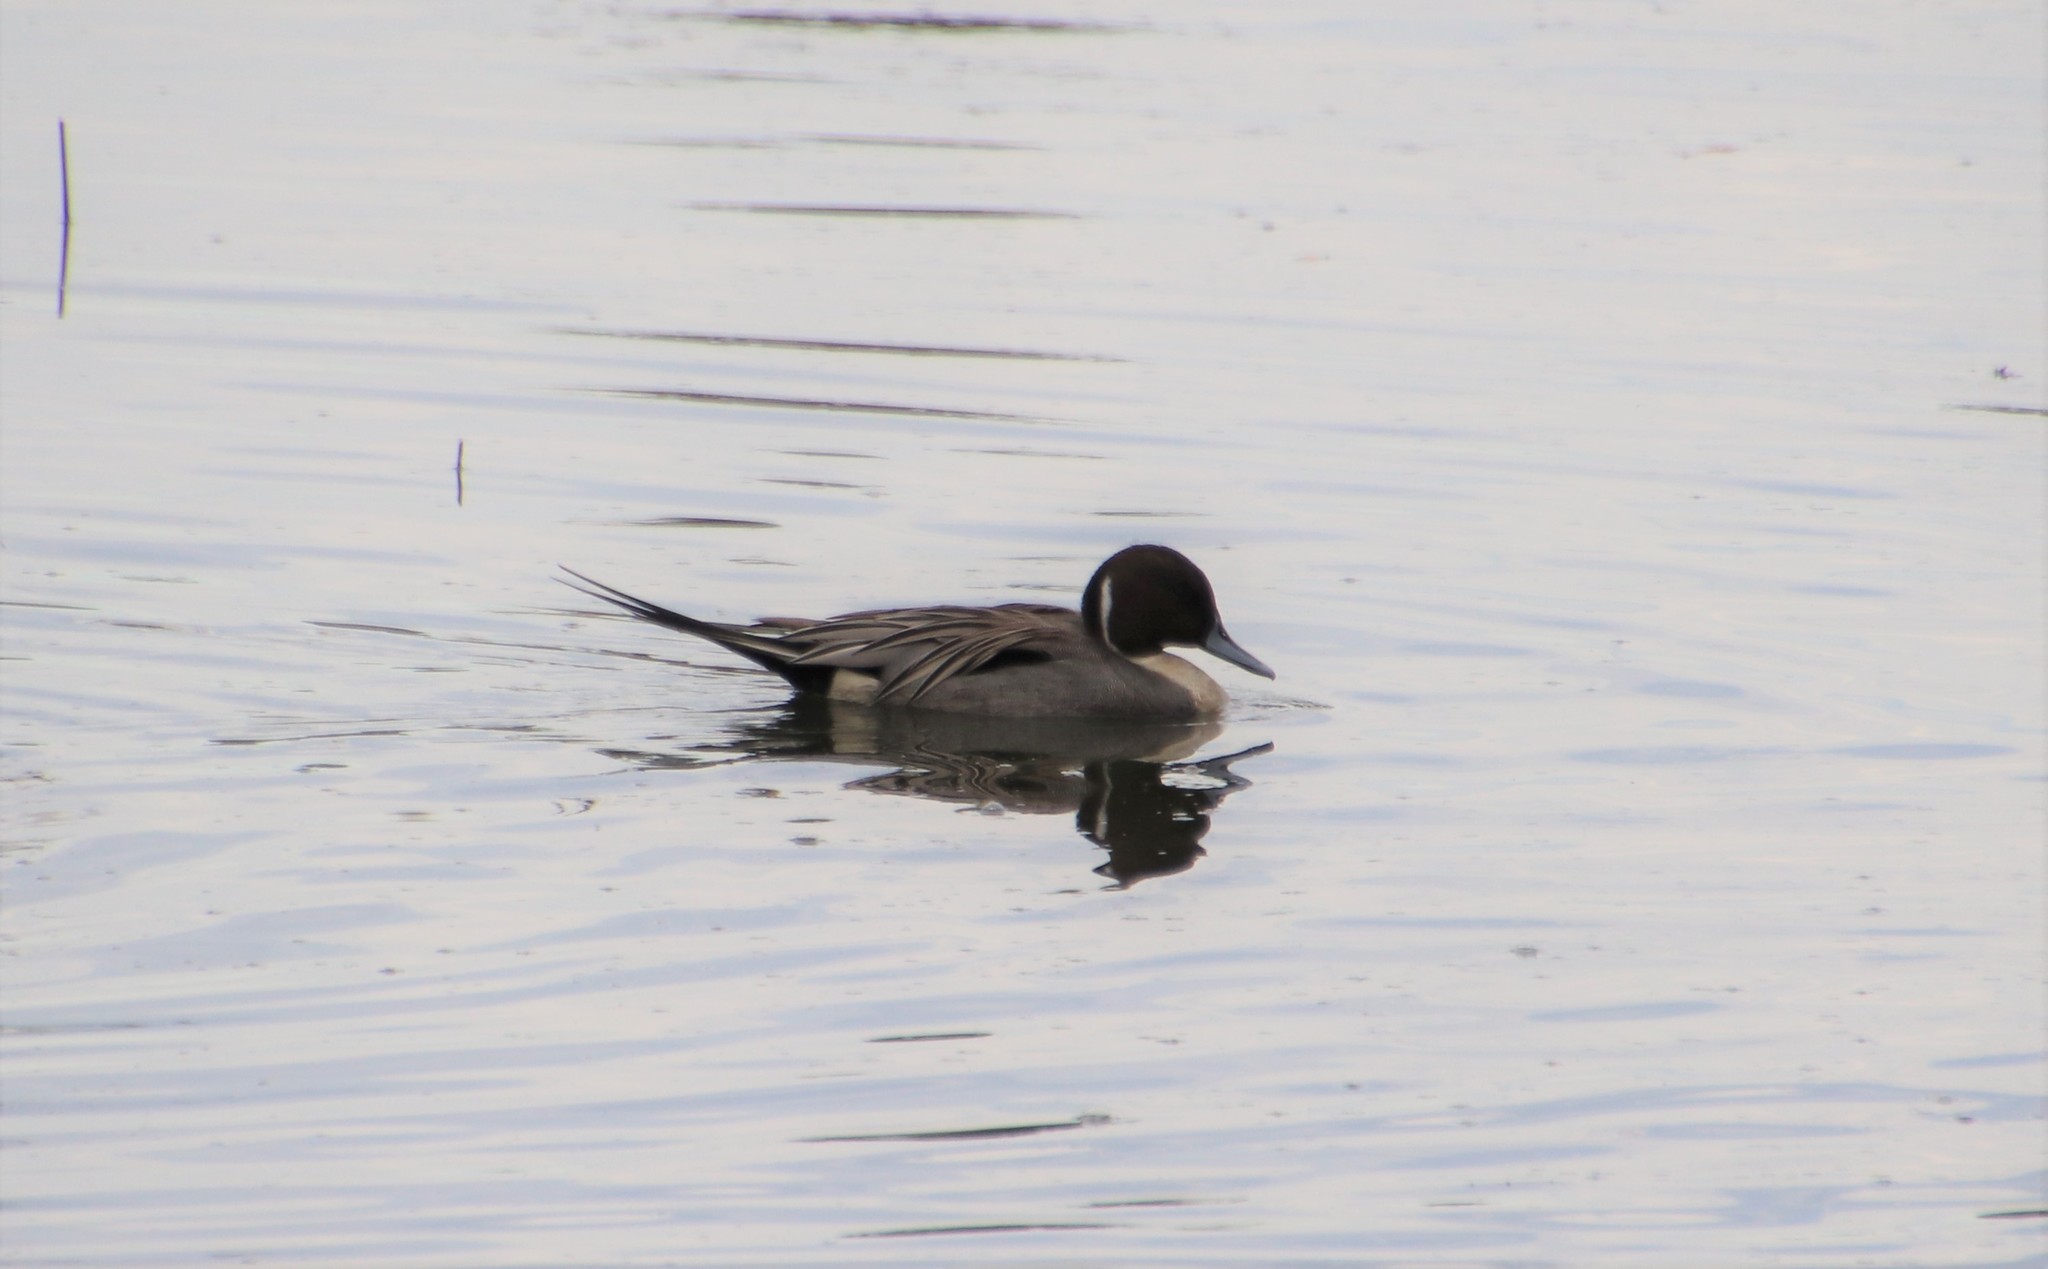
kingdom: Animalia
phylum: Chordata
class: Aves
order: Anseriformes
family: Anatidae
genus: Anas
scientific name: Anas acuta
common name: Northern pintail
